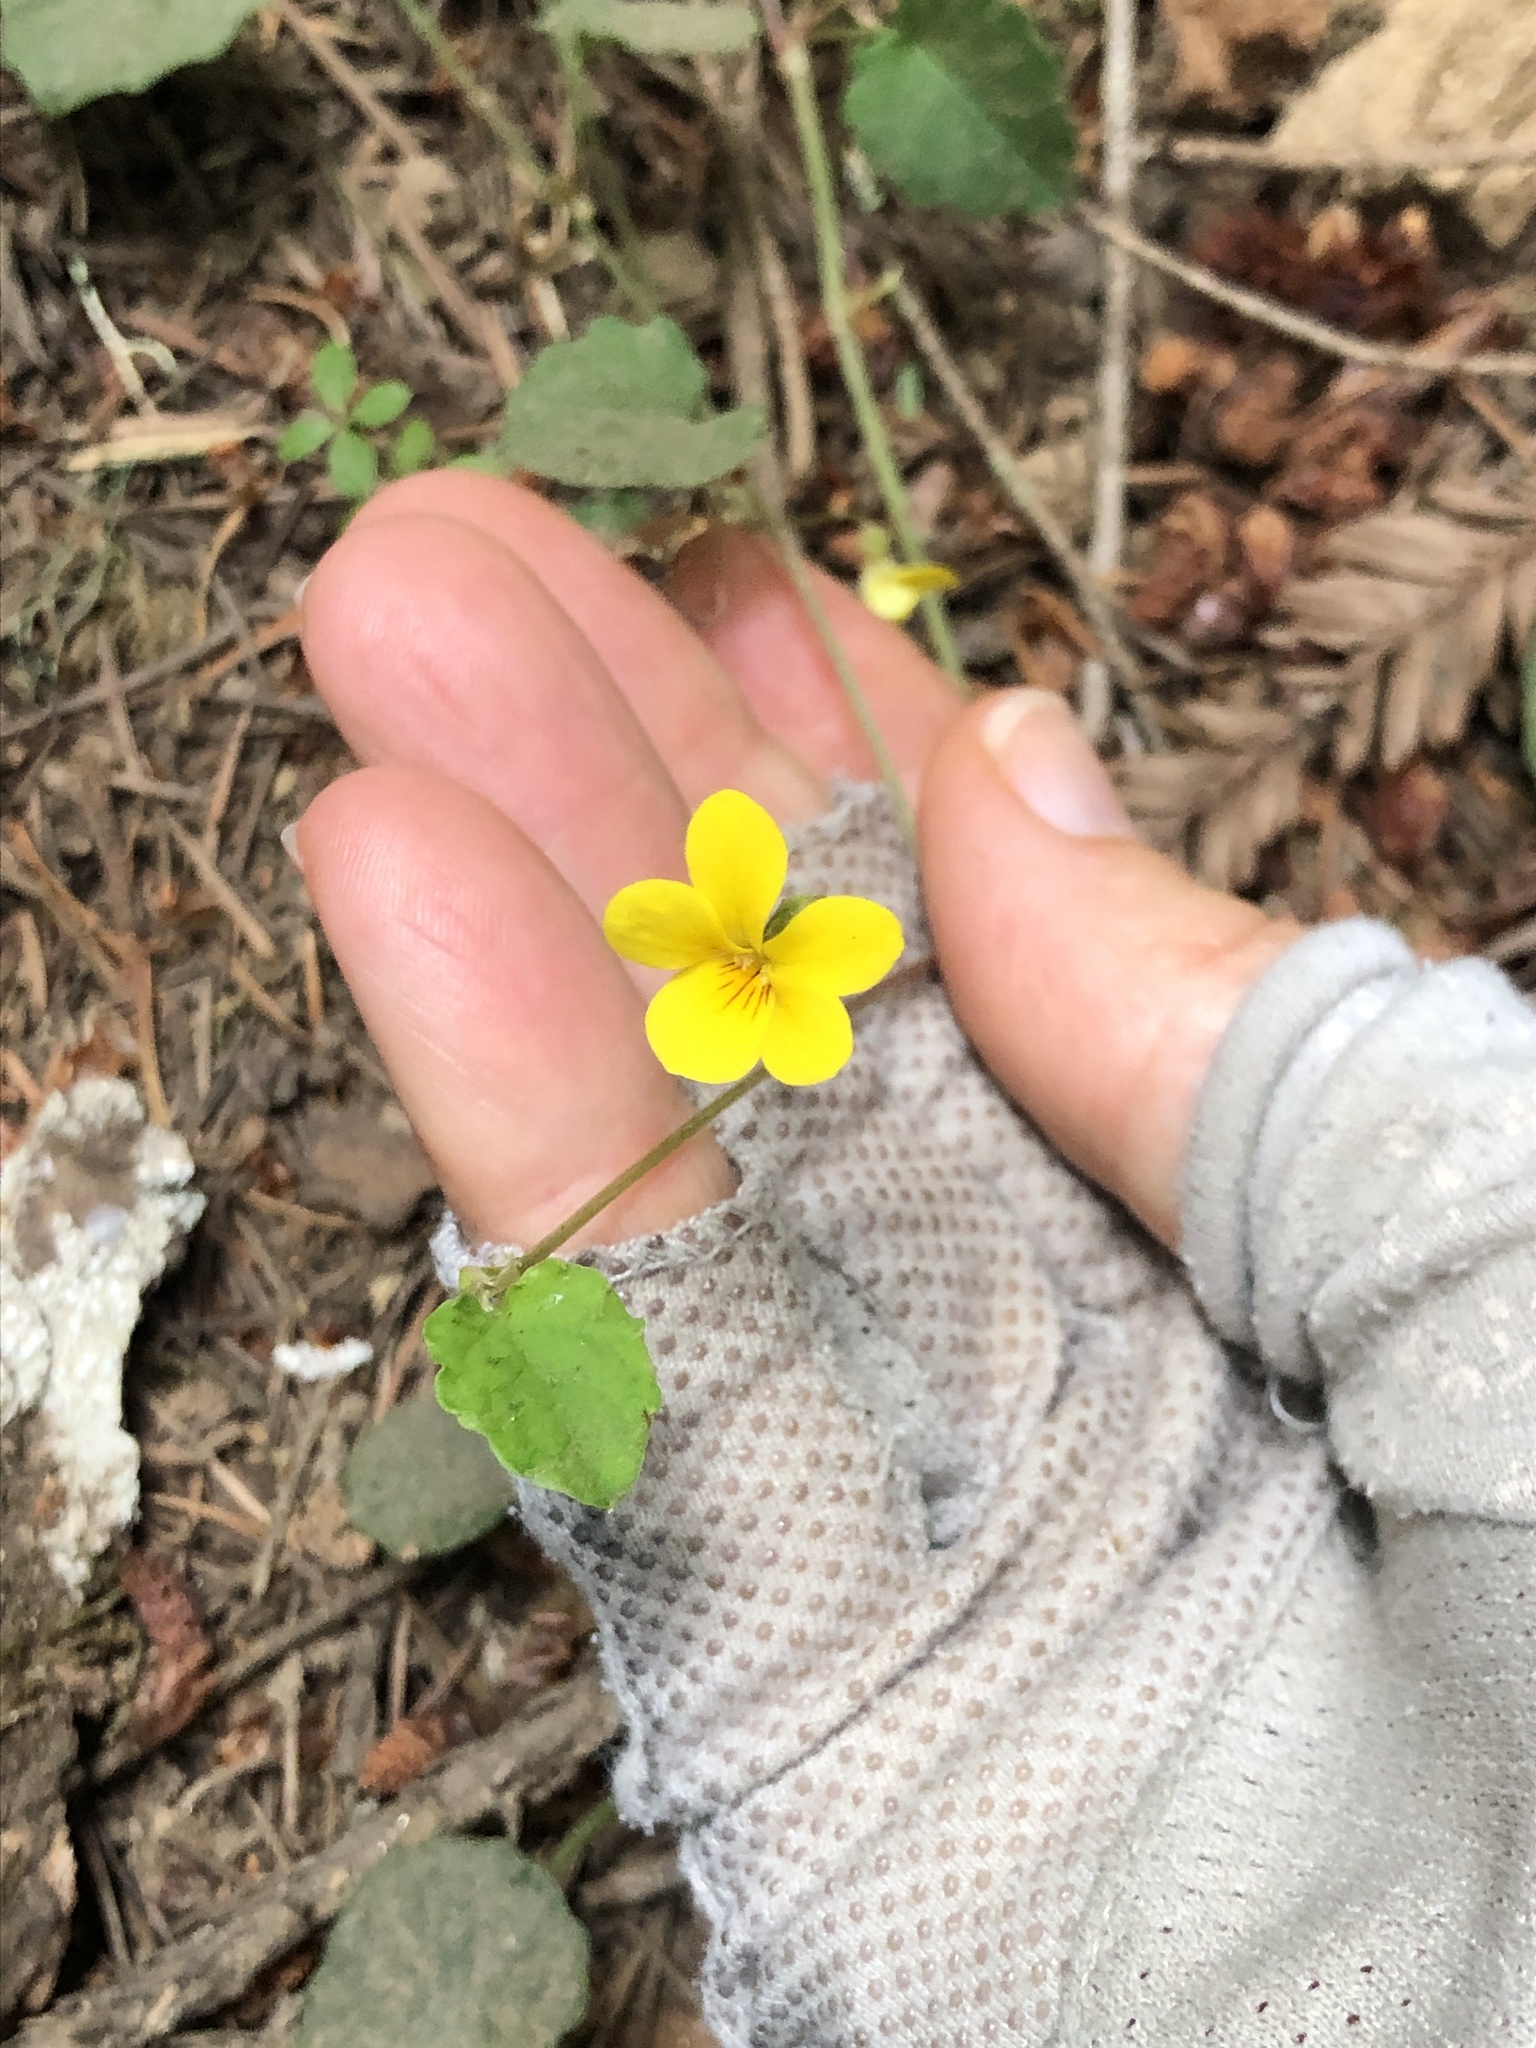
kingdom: Plantae
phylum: Tracheophyta
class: Magnoliopsida
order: Malpighiales
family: Violaceae
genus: Viola
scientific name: Viola sempervirens
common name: Evergreen violet
